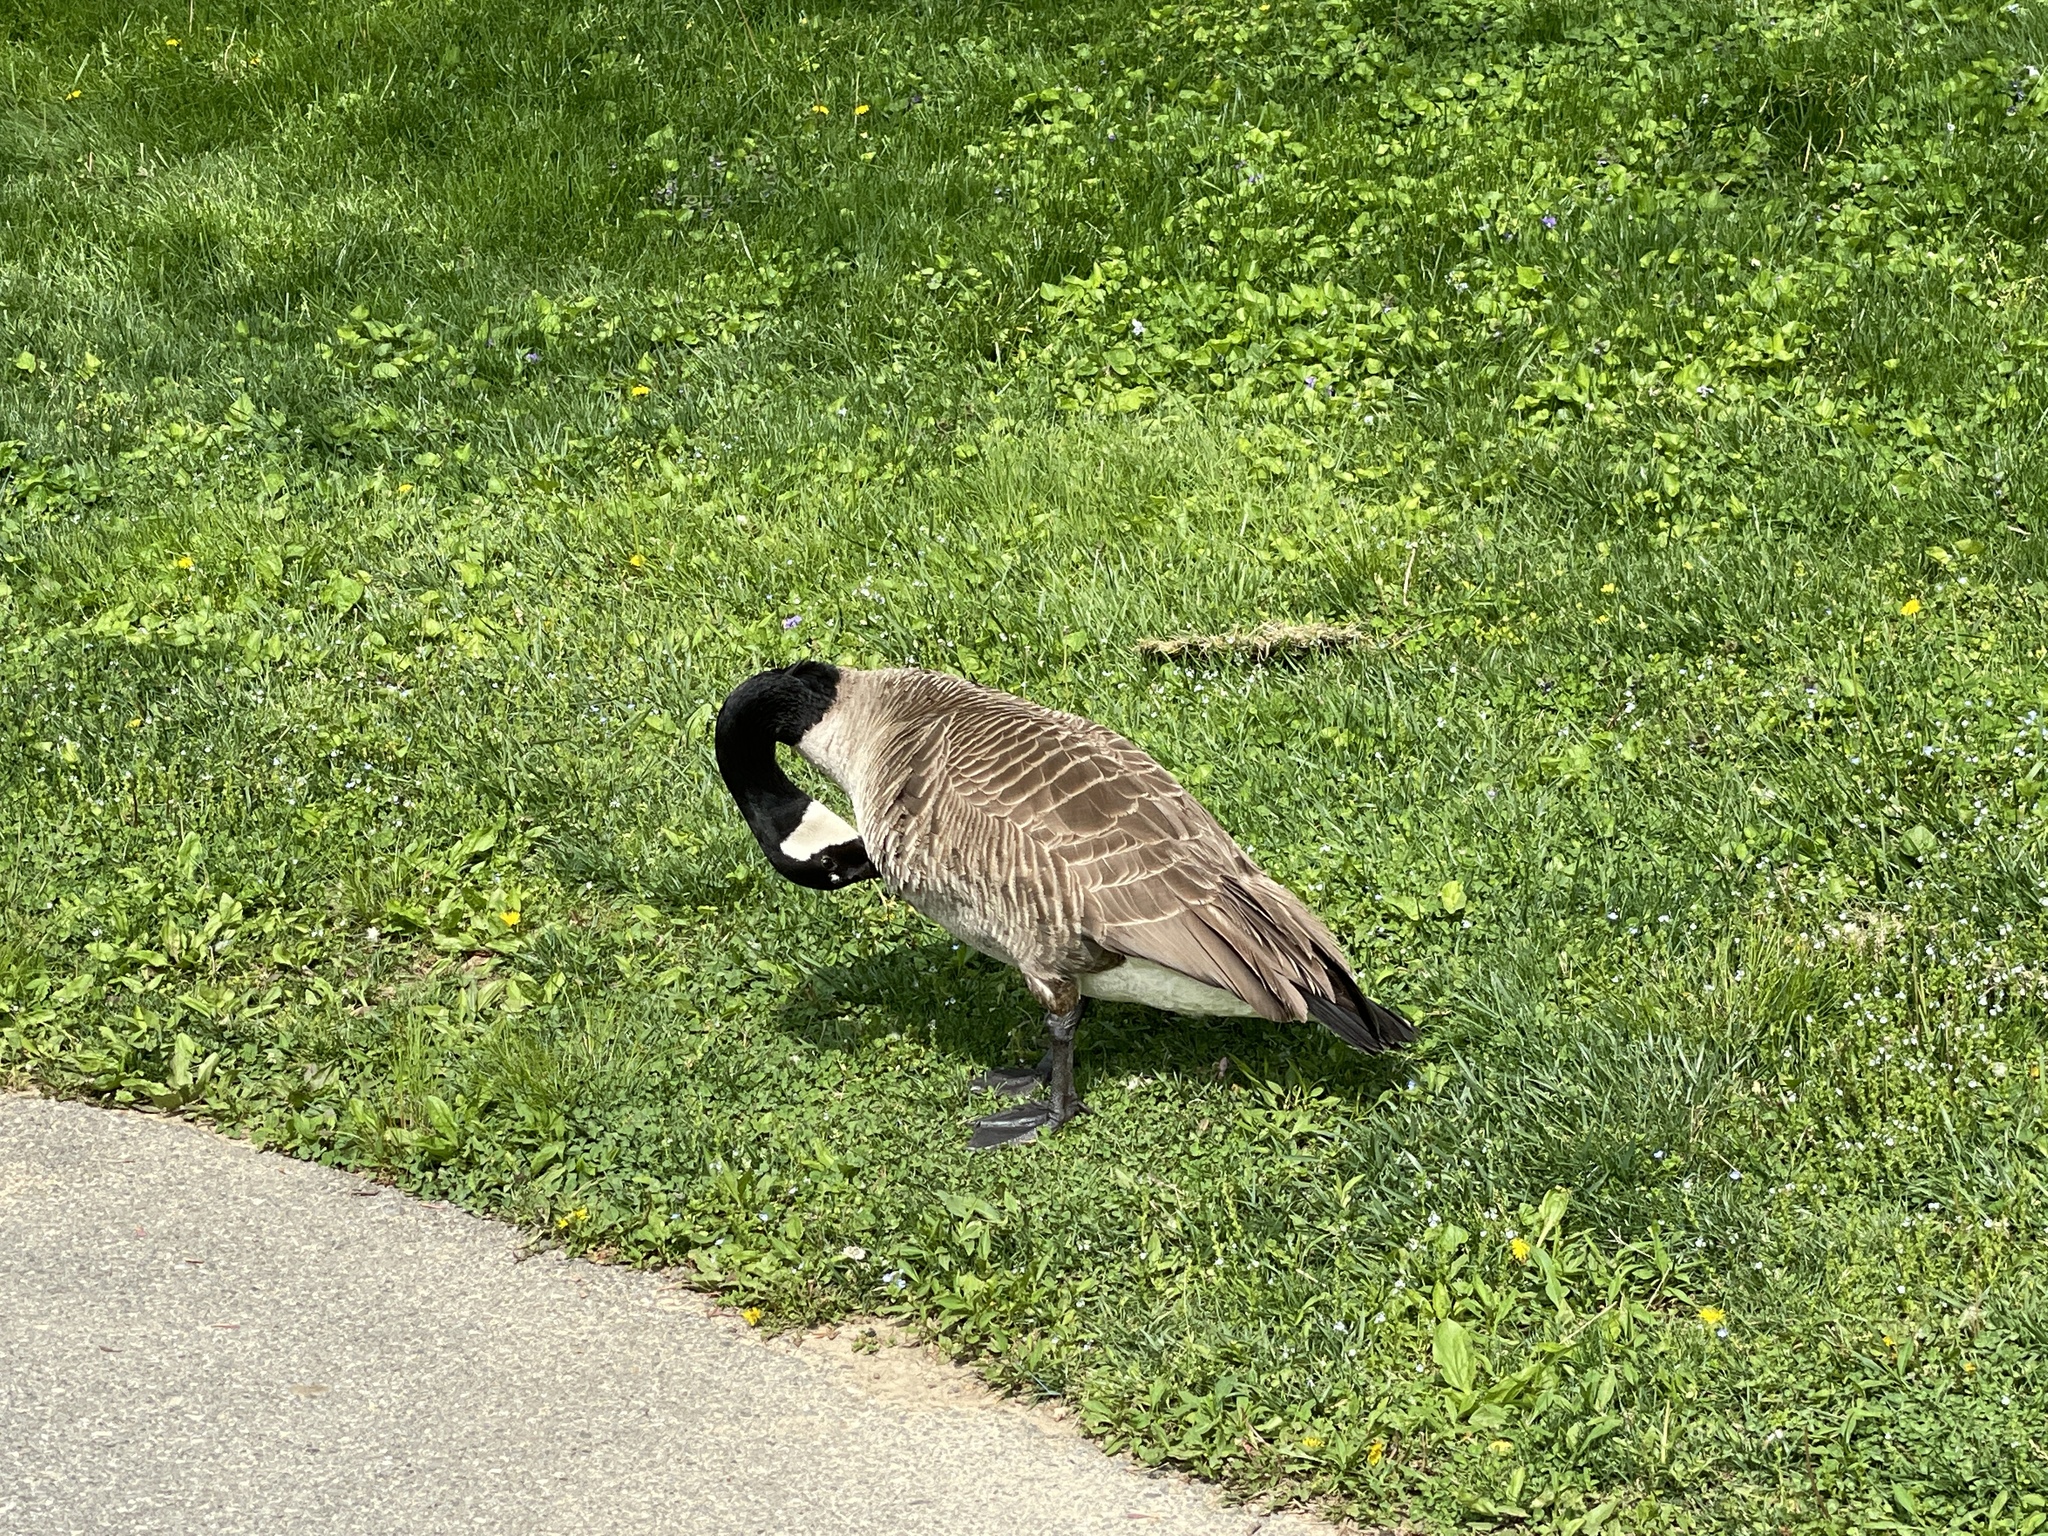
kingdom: Animalia
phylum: Chordata
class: Aves
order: Anseriformes
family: Anatidae
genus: Branta
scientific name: Branta canadensis
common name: Canada goose
